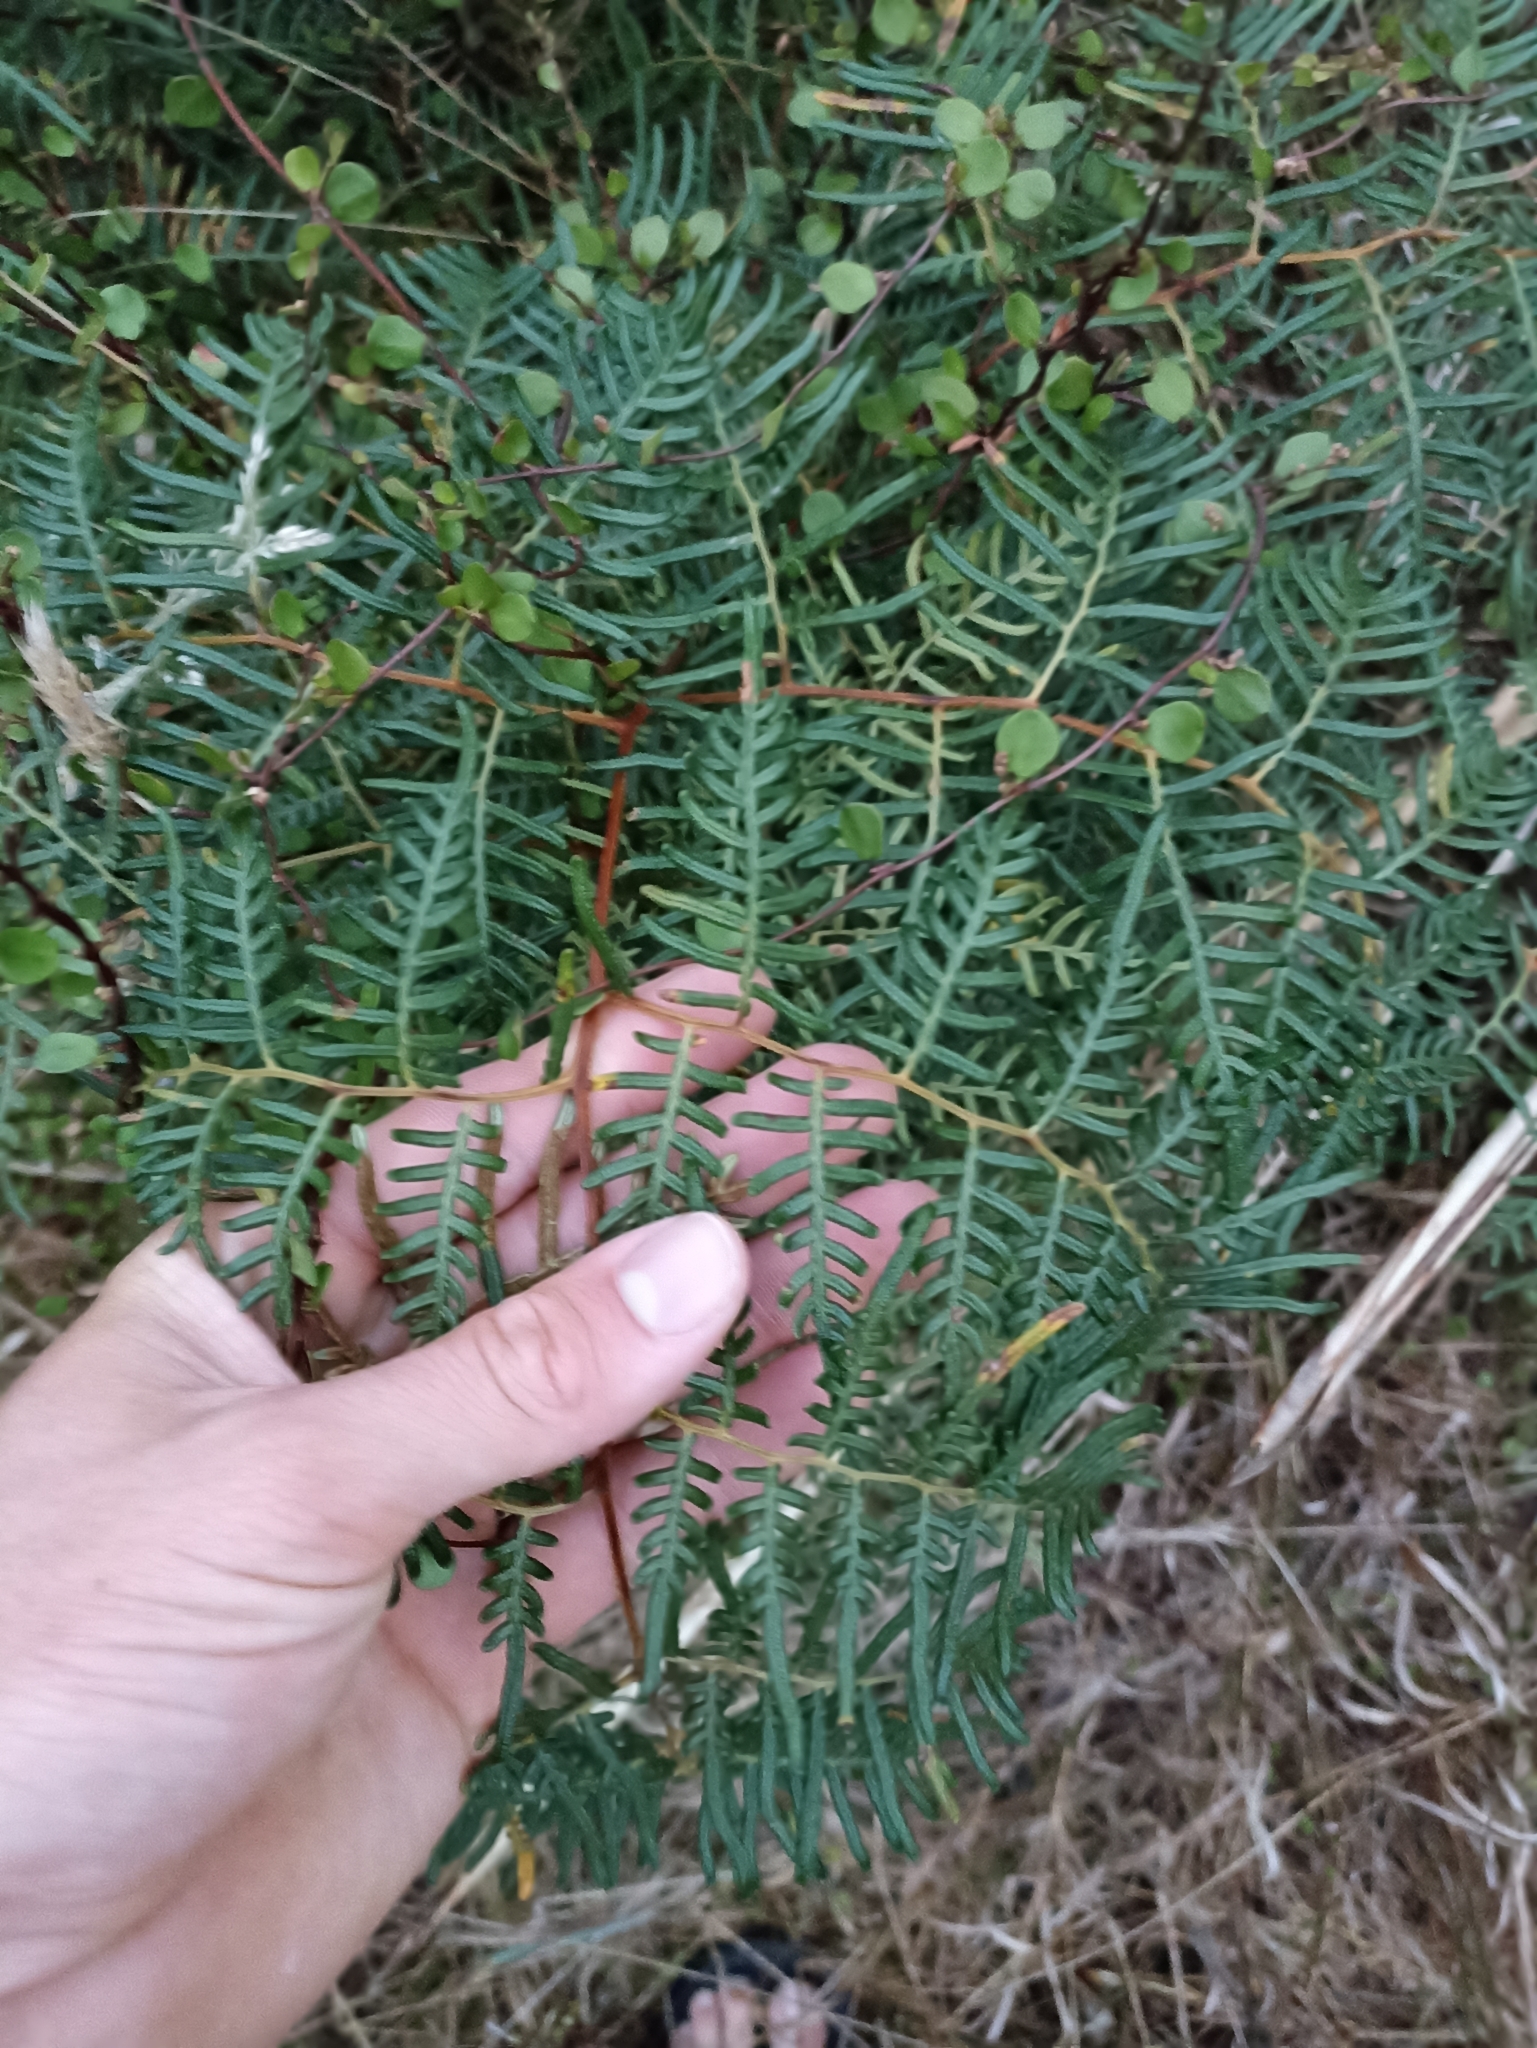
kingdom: Plantae
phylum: Tracheophyta
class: Polypodiopsida
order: Polypodiales
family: Dennstaedtiaceae
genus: Pteridium
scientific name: Pteridium esculentum
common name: Bracken fern
